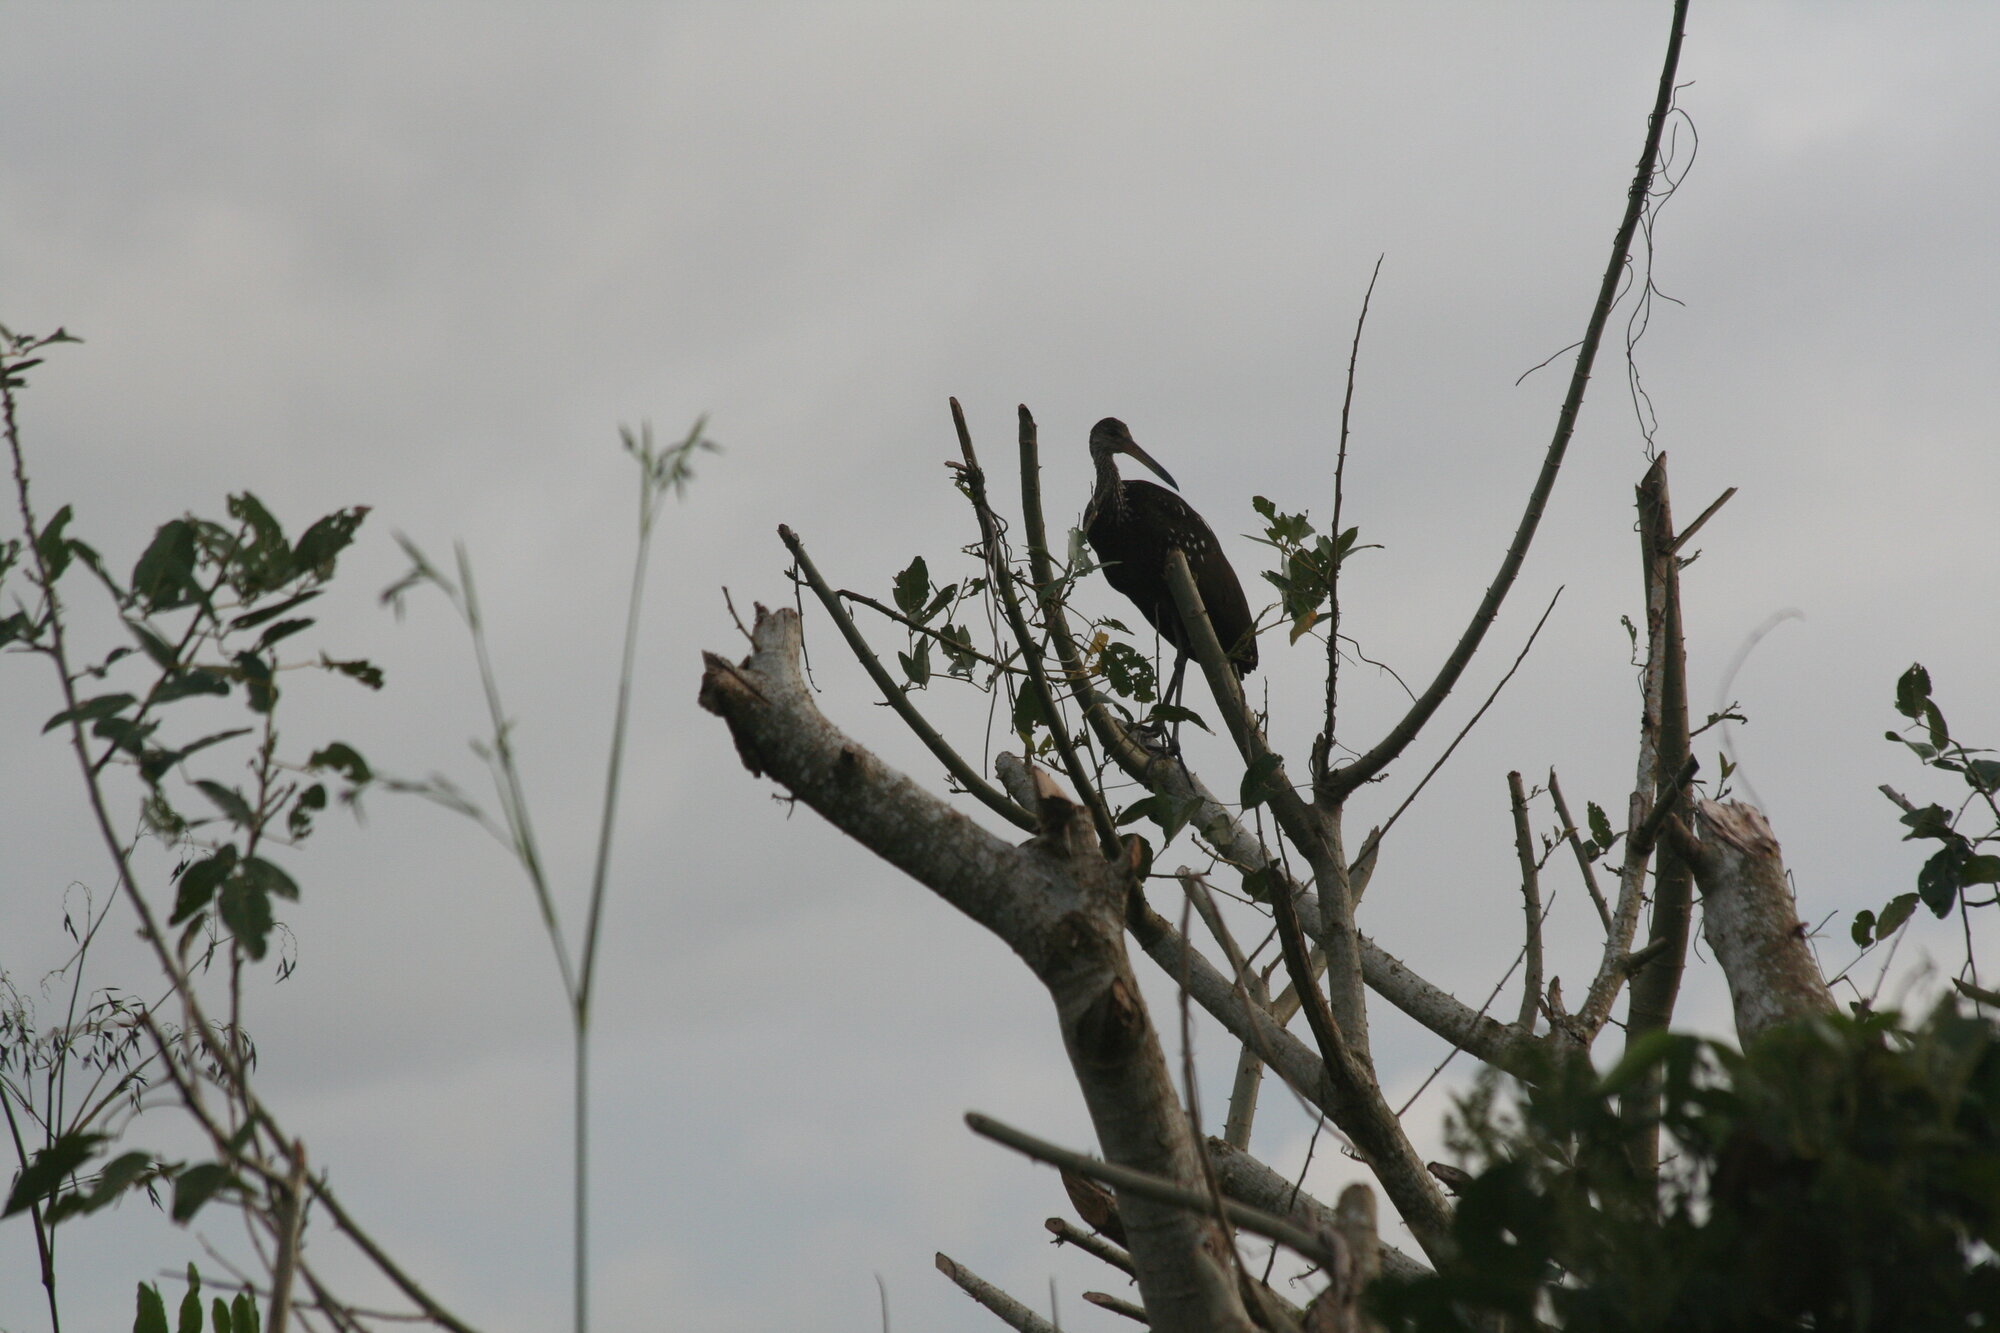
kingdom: Animalia
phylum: Chordata
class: Aves
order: Gruiformes
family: Aramidae
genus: Aramus
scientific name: Aramus guarauna
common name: Limpkin
